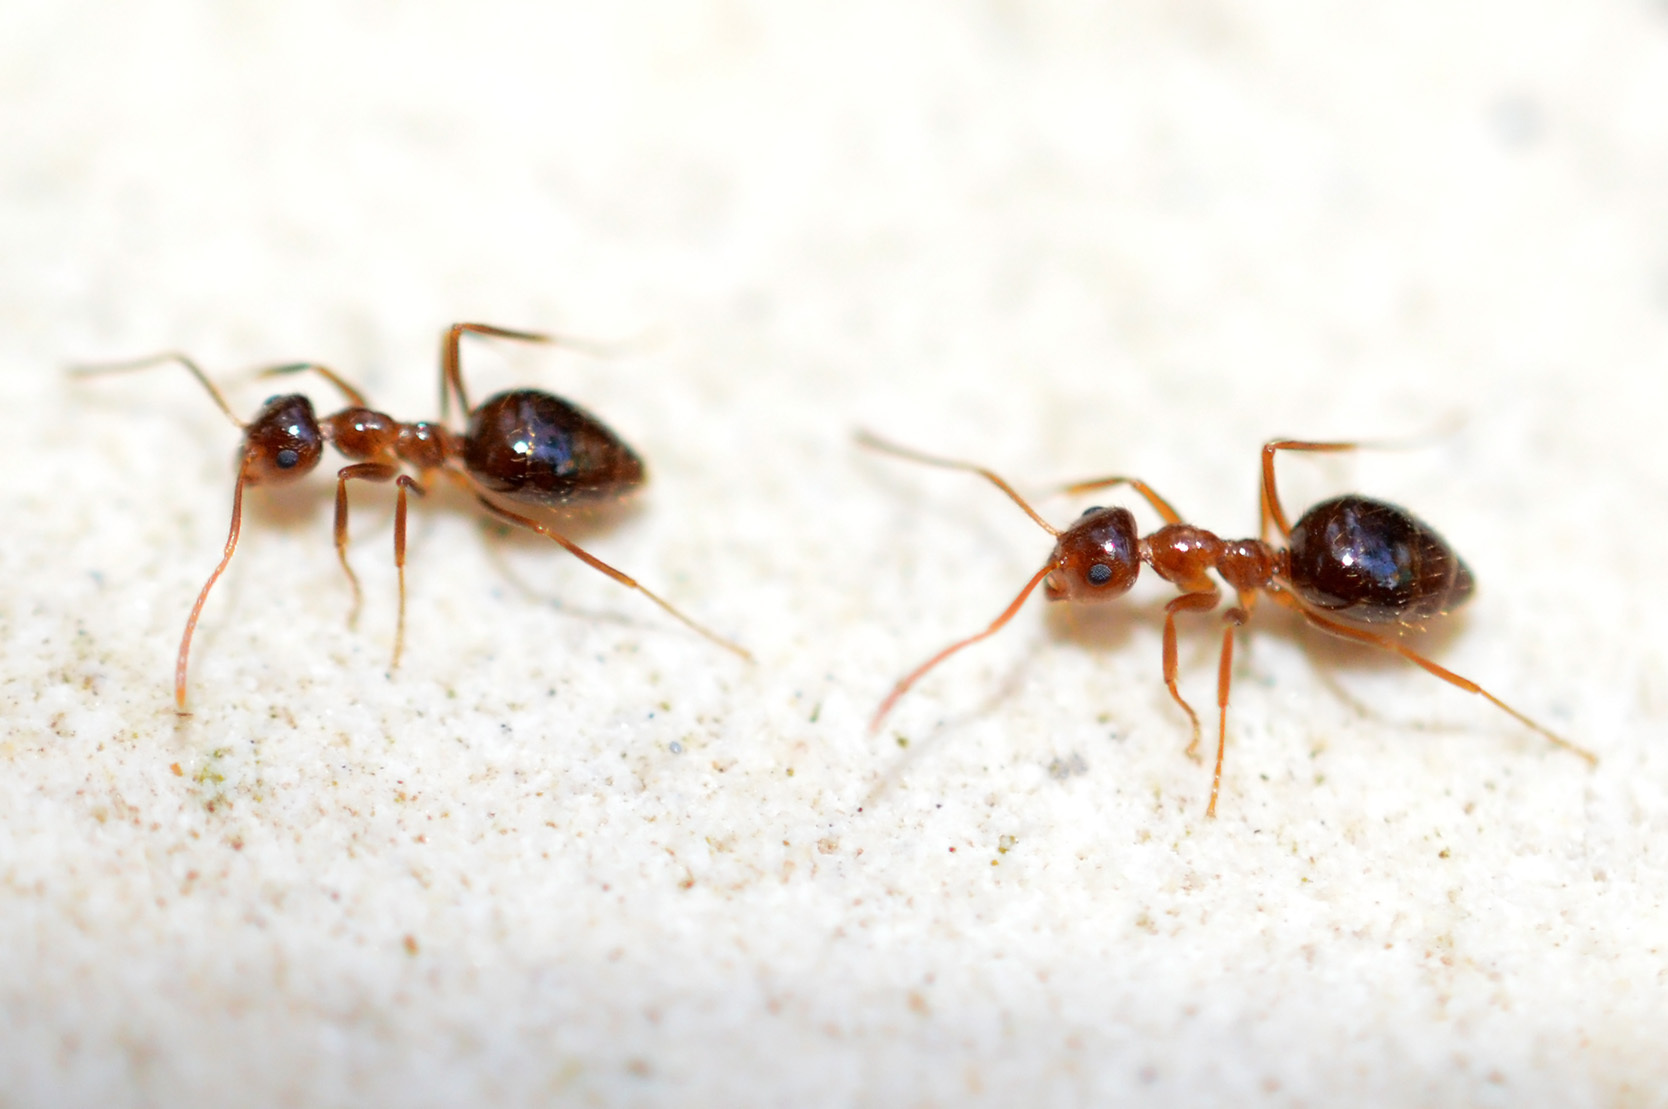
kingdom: Animalia
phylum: Arthropoda
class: Insecta
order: Hymenoptera
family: Formicidae
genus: Prenolepis
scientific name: Prenolepis nitens
